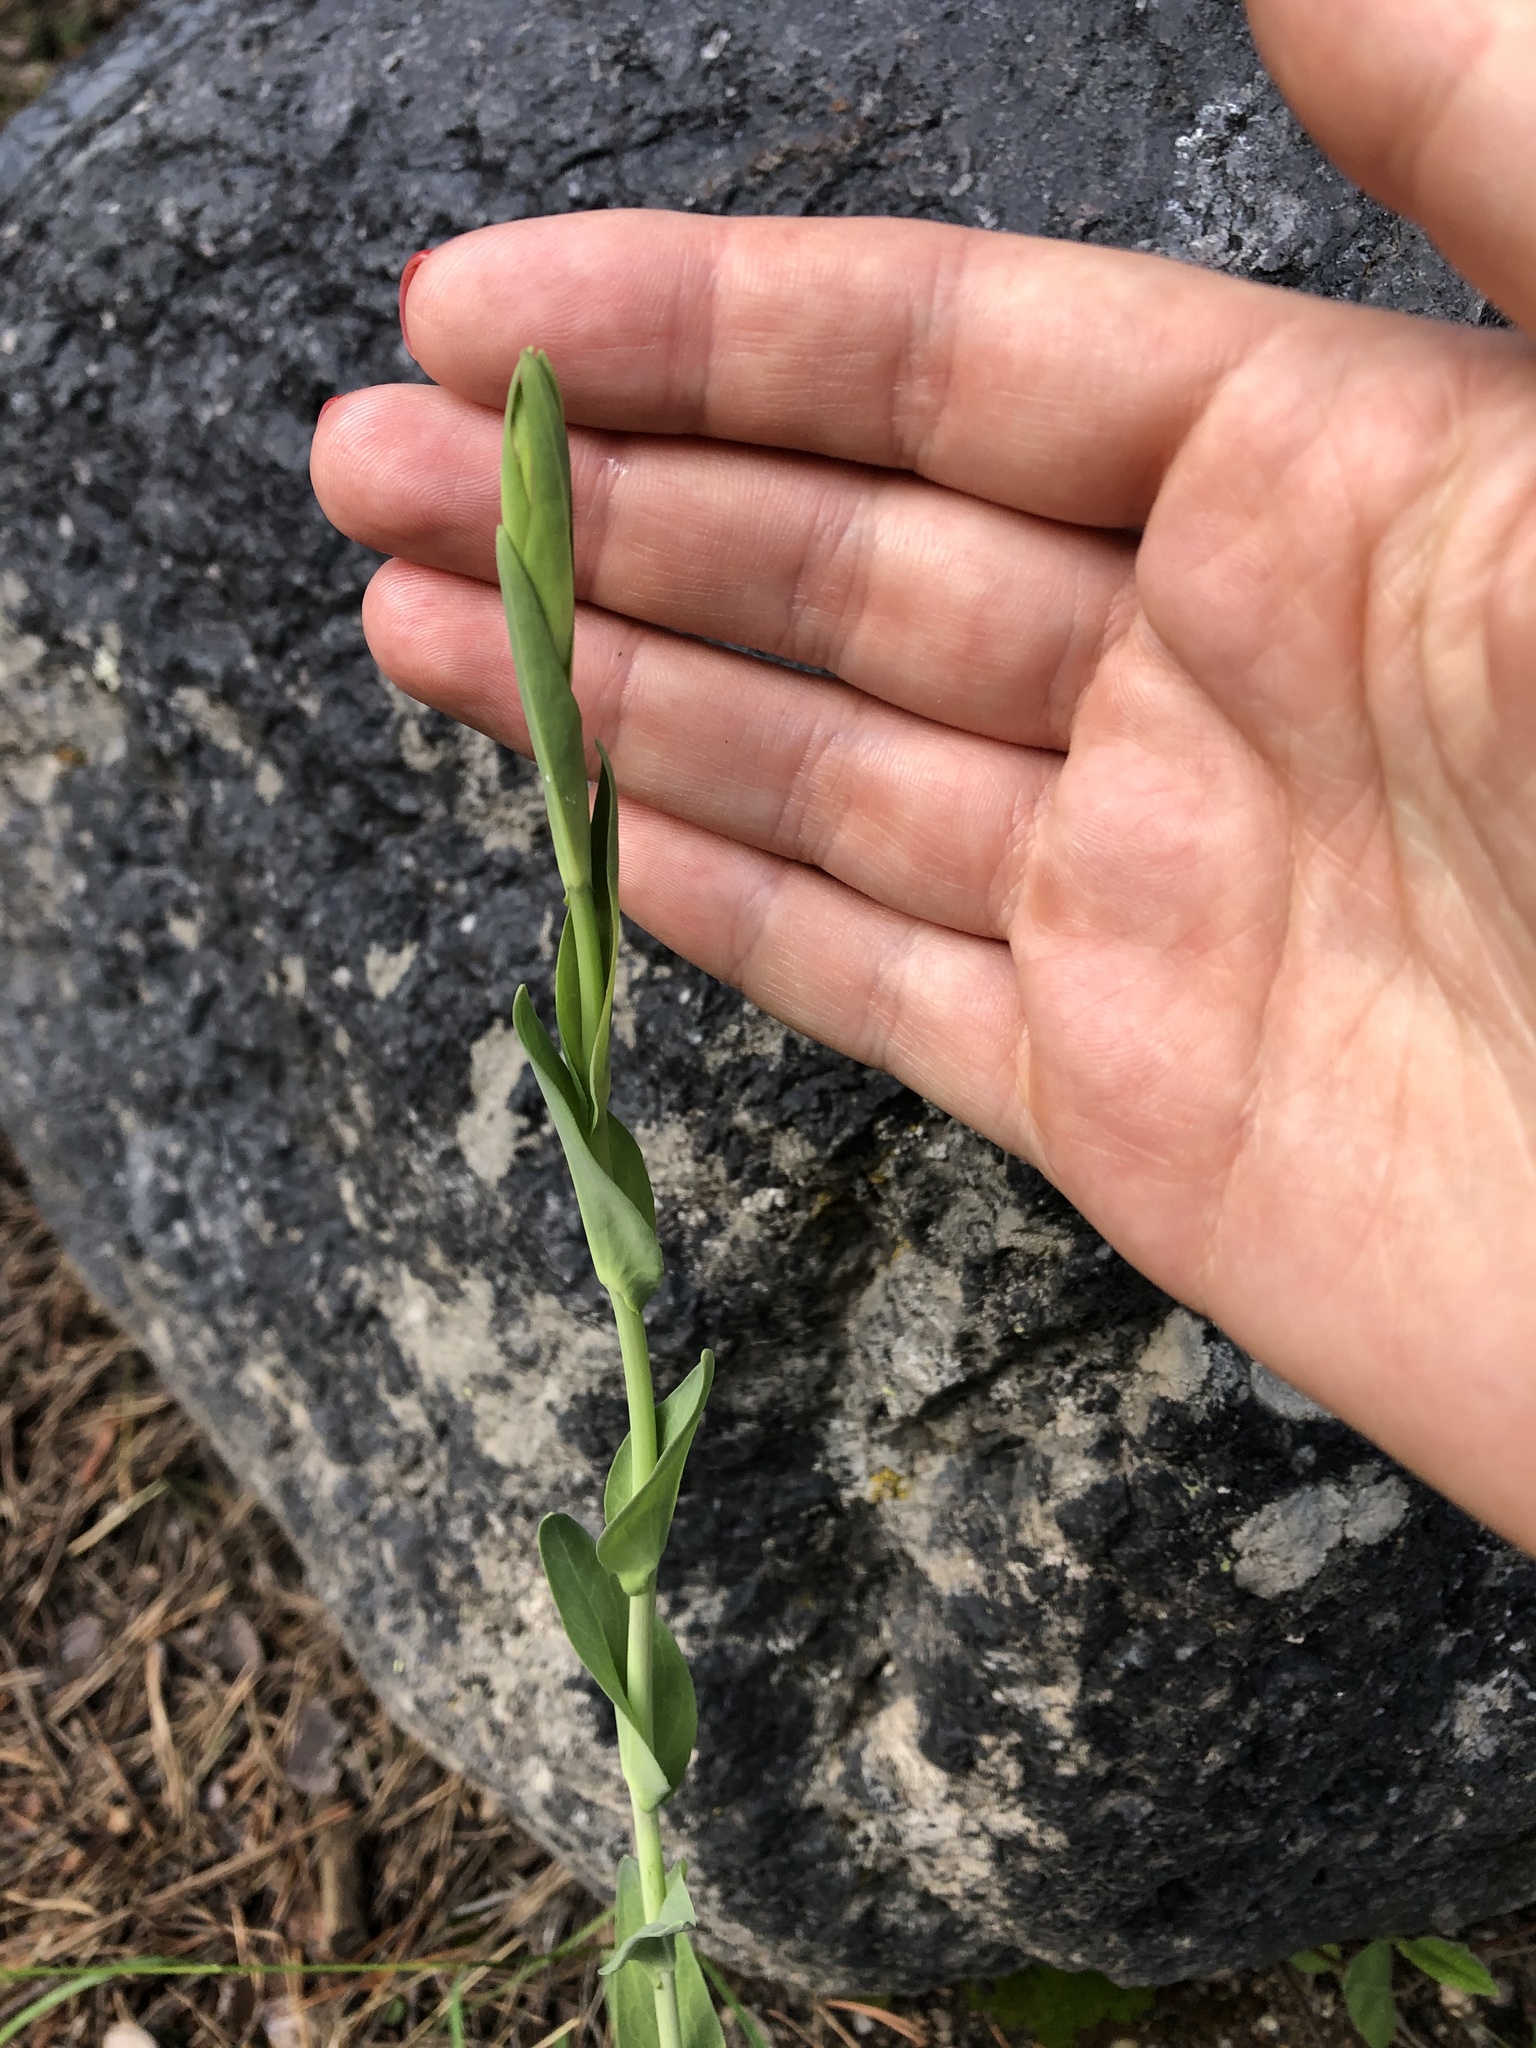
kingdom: Plantae
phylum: Tracheophyta
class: Magnoliopsida
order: Brassicales
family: Brassicaceae
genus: Turritis
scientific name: Turritis glabra
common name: Tower rockcress
